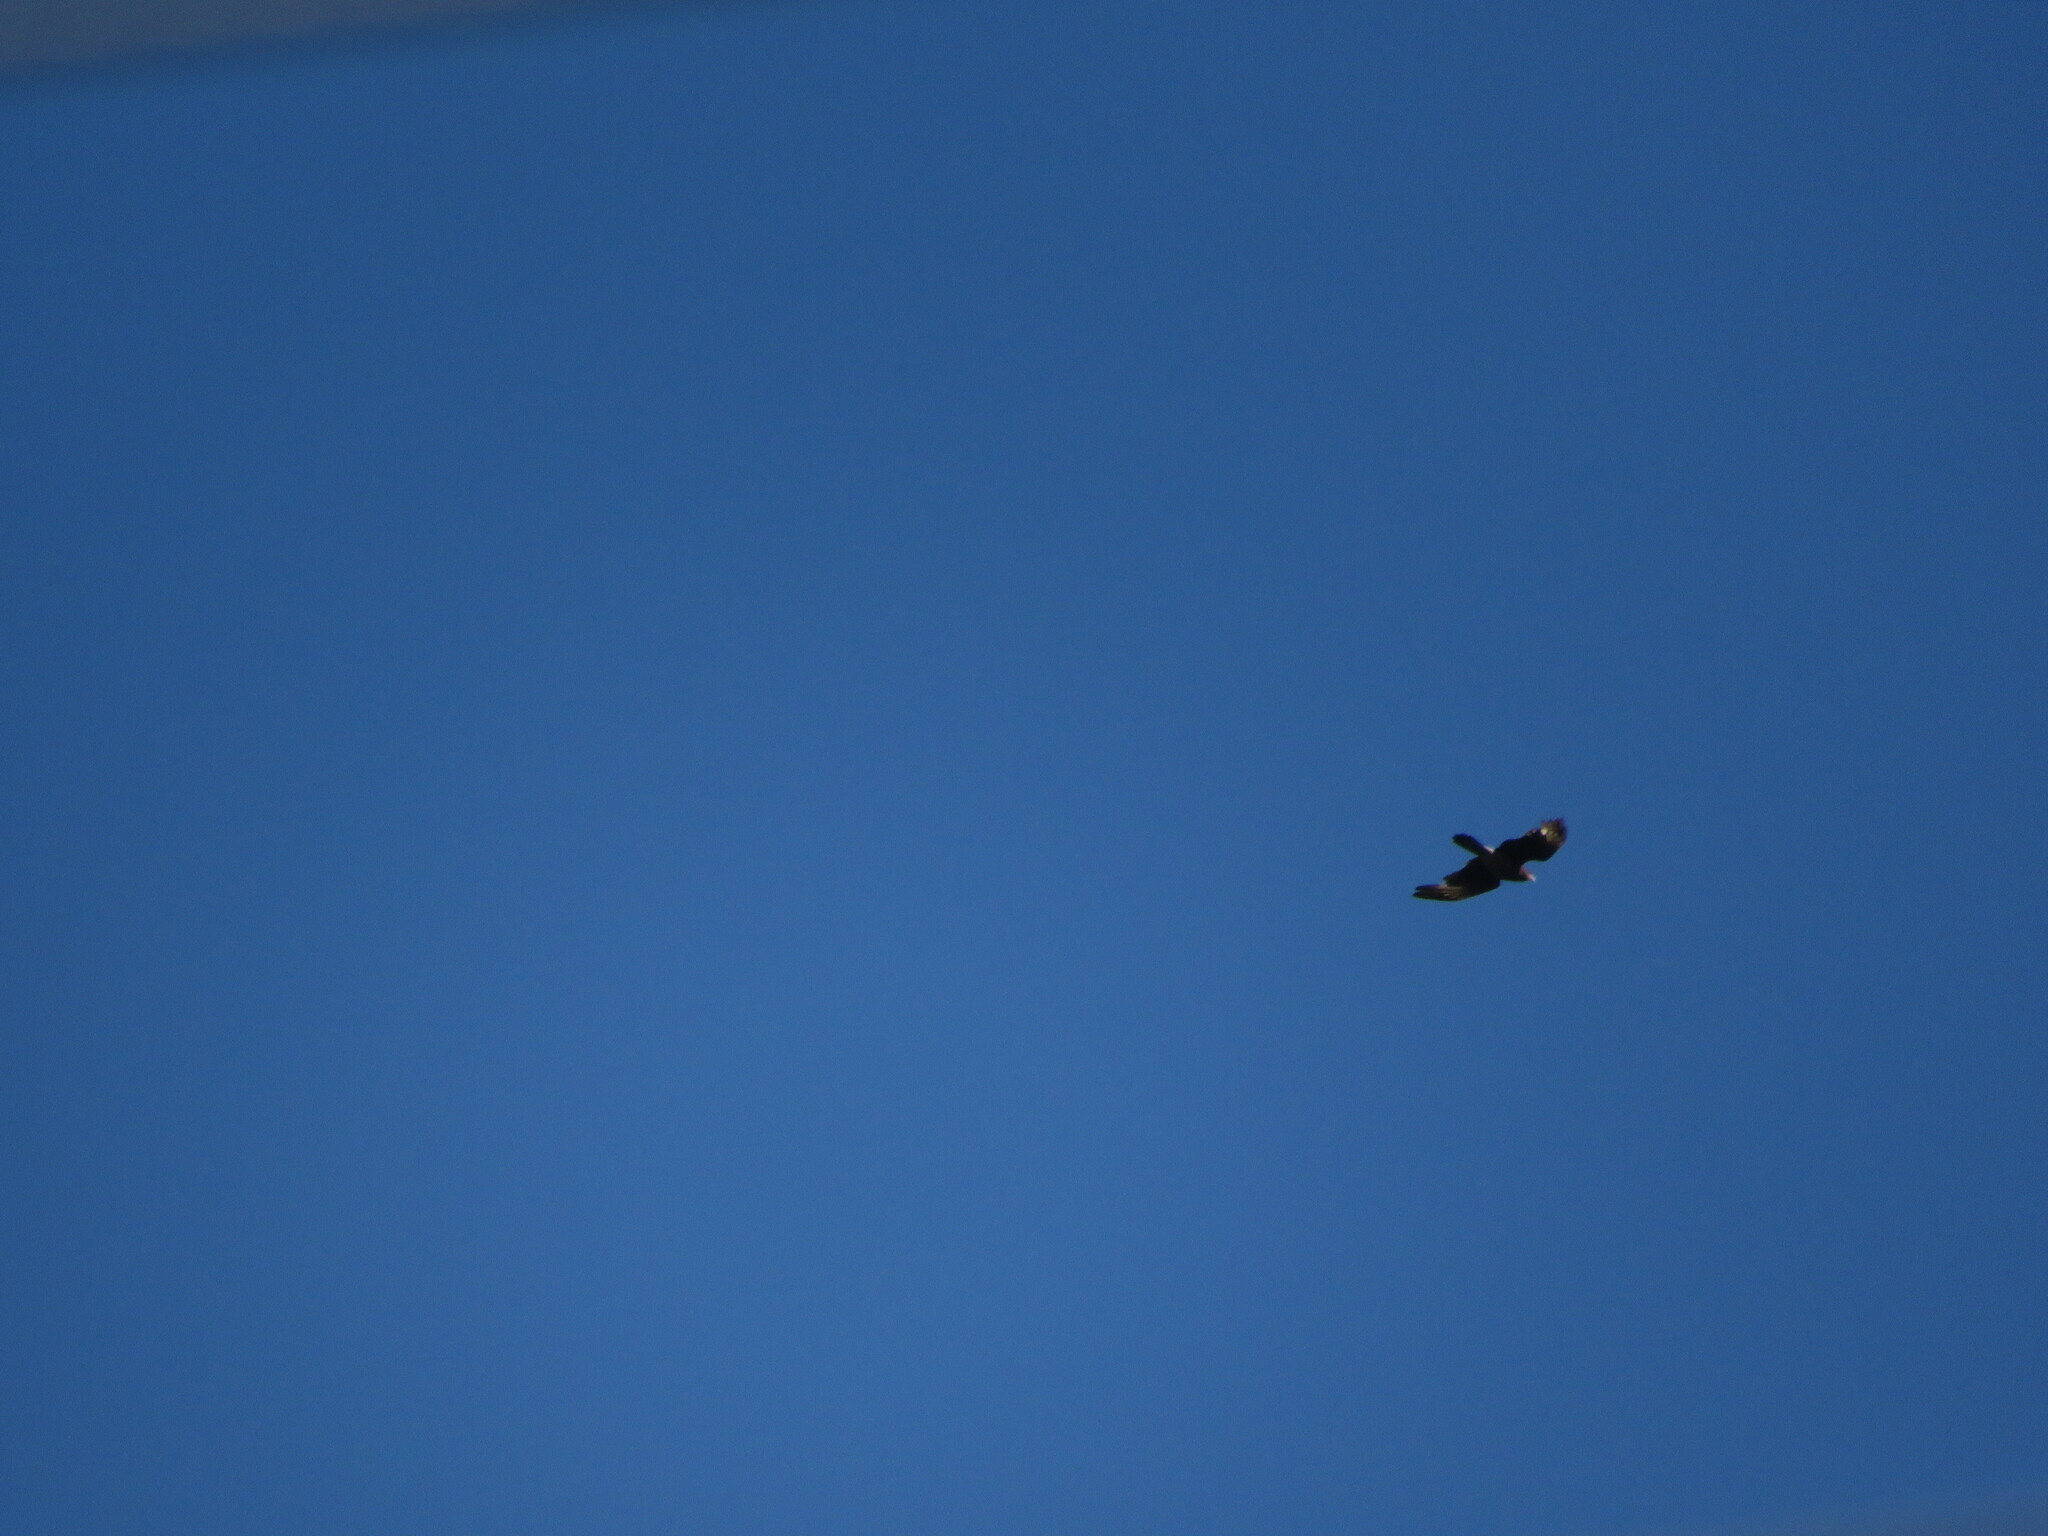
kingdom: Animalia
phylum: Chordata
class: Aves
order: Falconiformes
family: Falconidae
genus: Daptrius
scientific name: Daptrius
